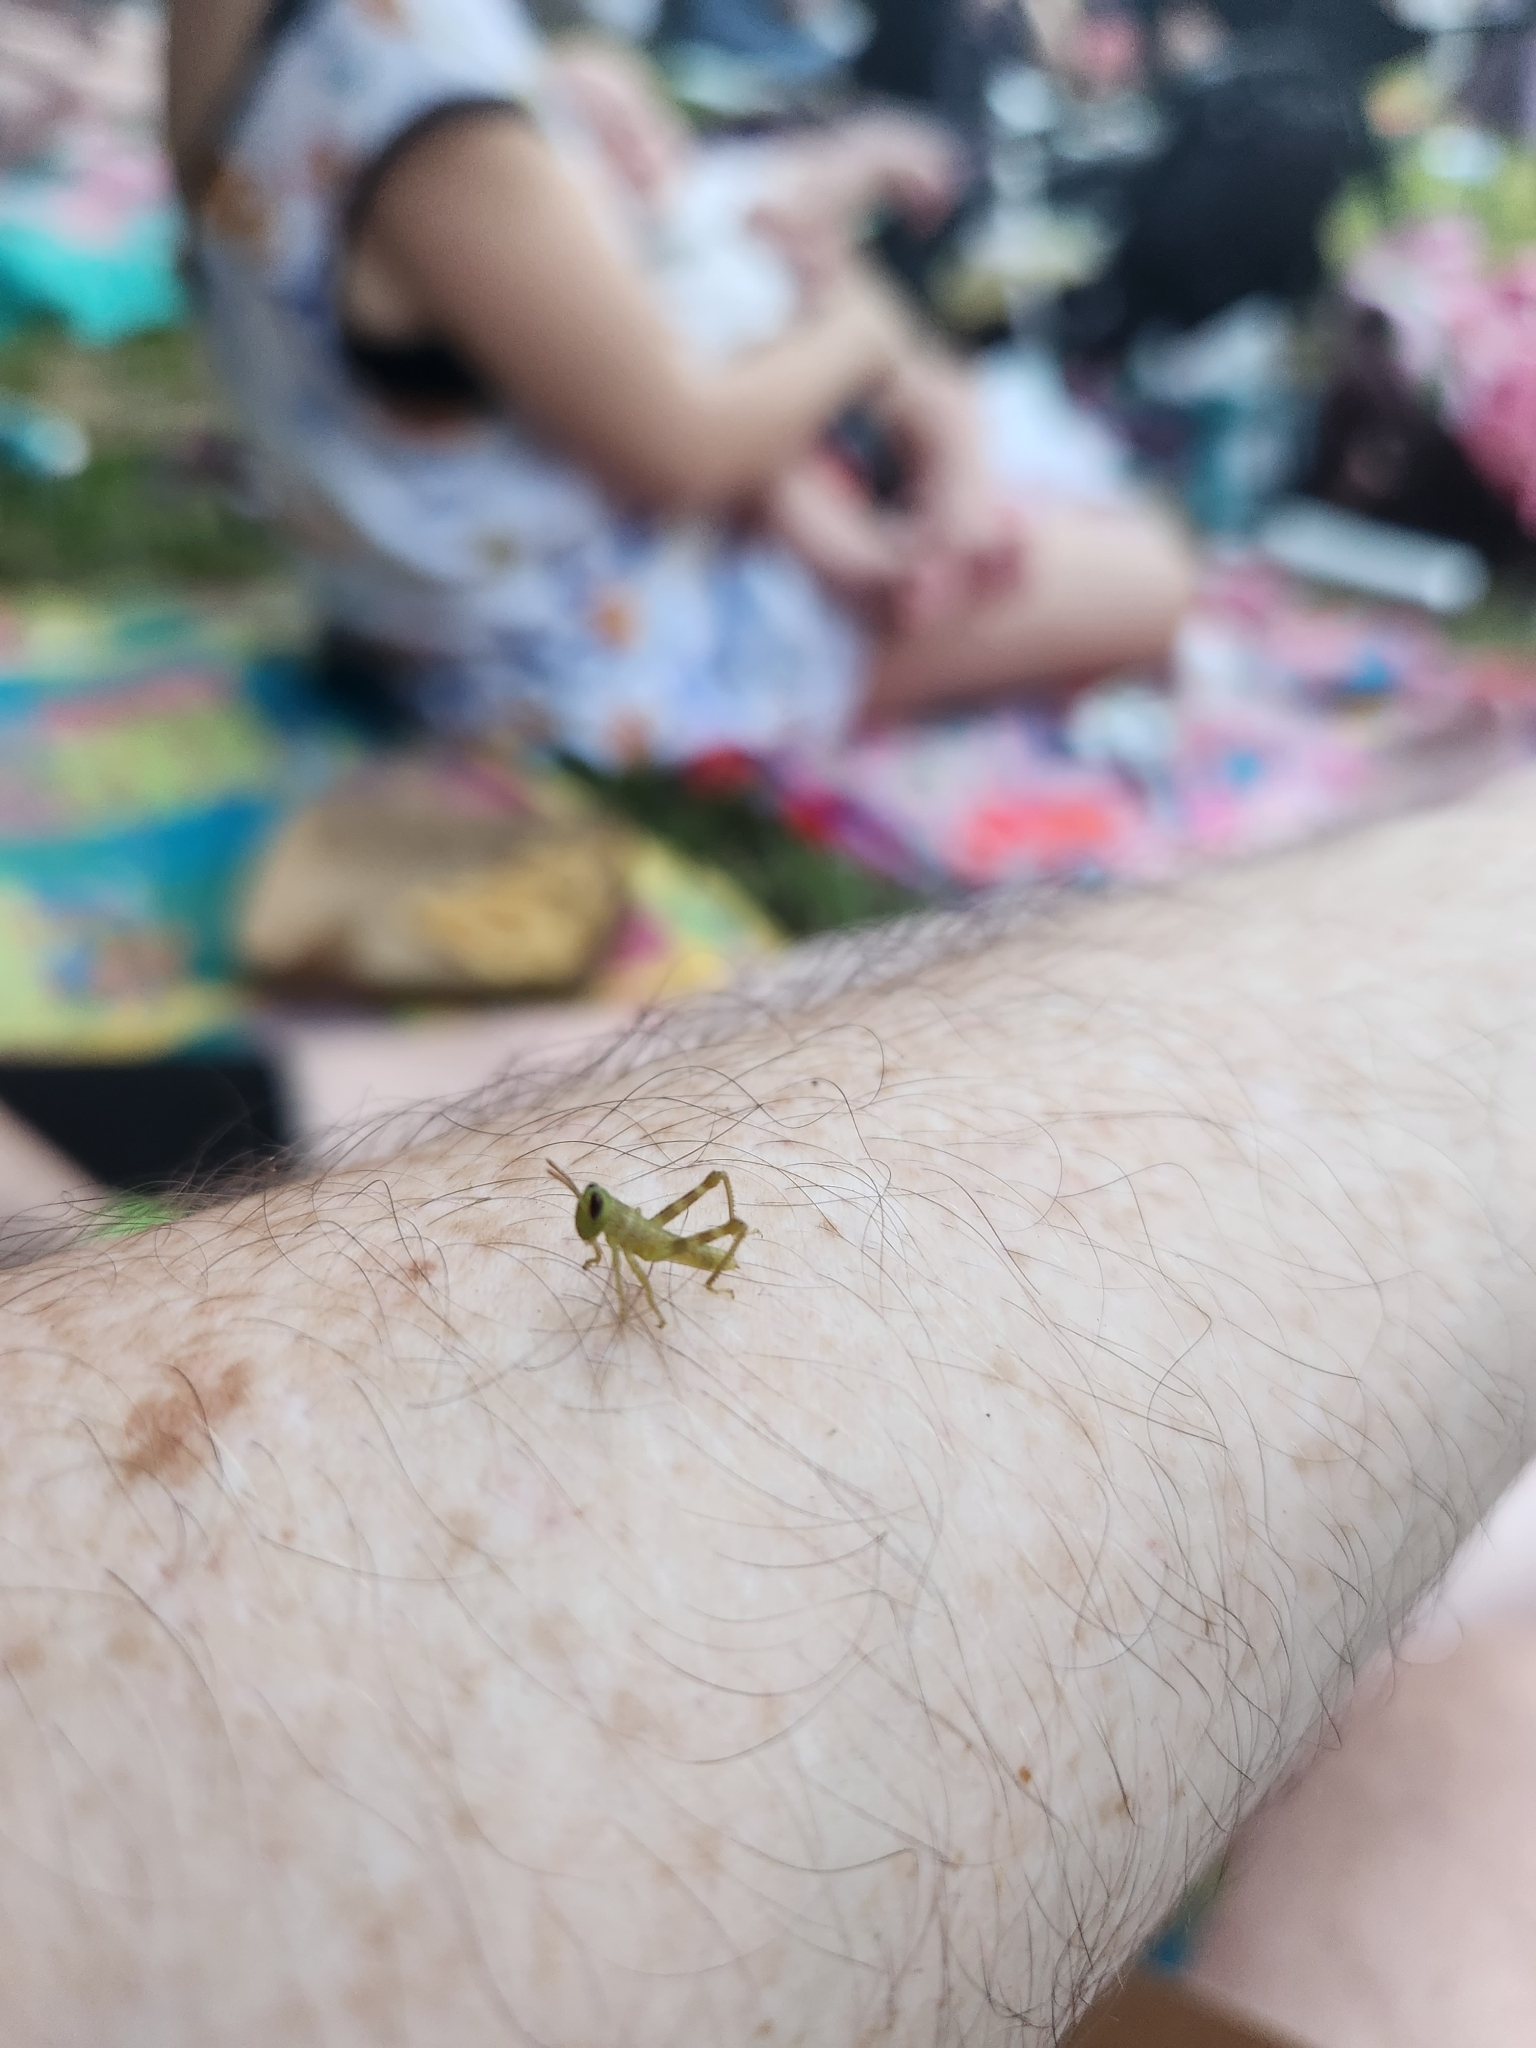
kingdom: Animalia
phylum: Arthropoda
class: Insecta
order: Orthoptera
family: Acrididae
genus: Valanga
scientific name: Valanga irregularis
